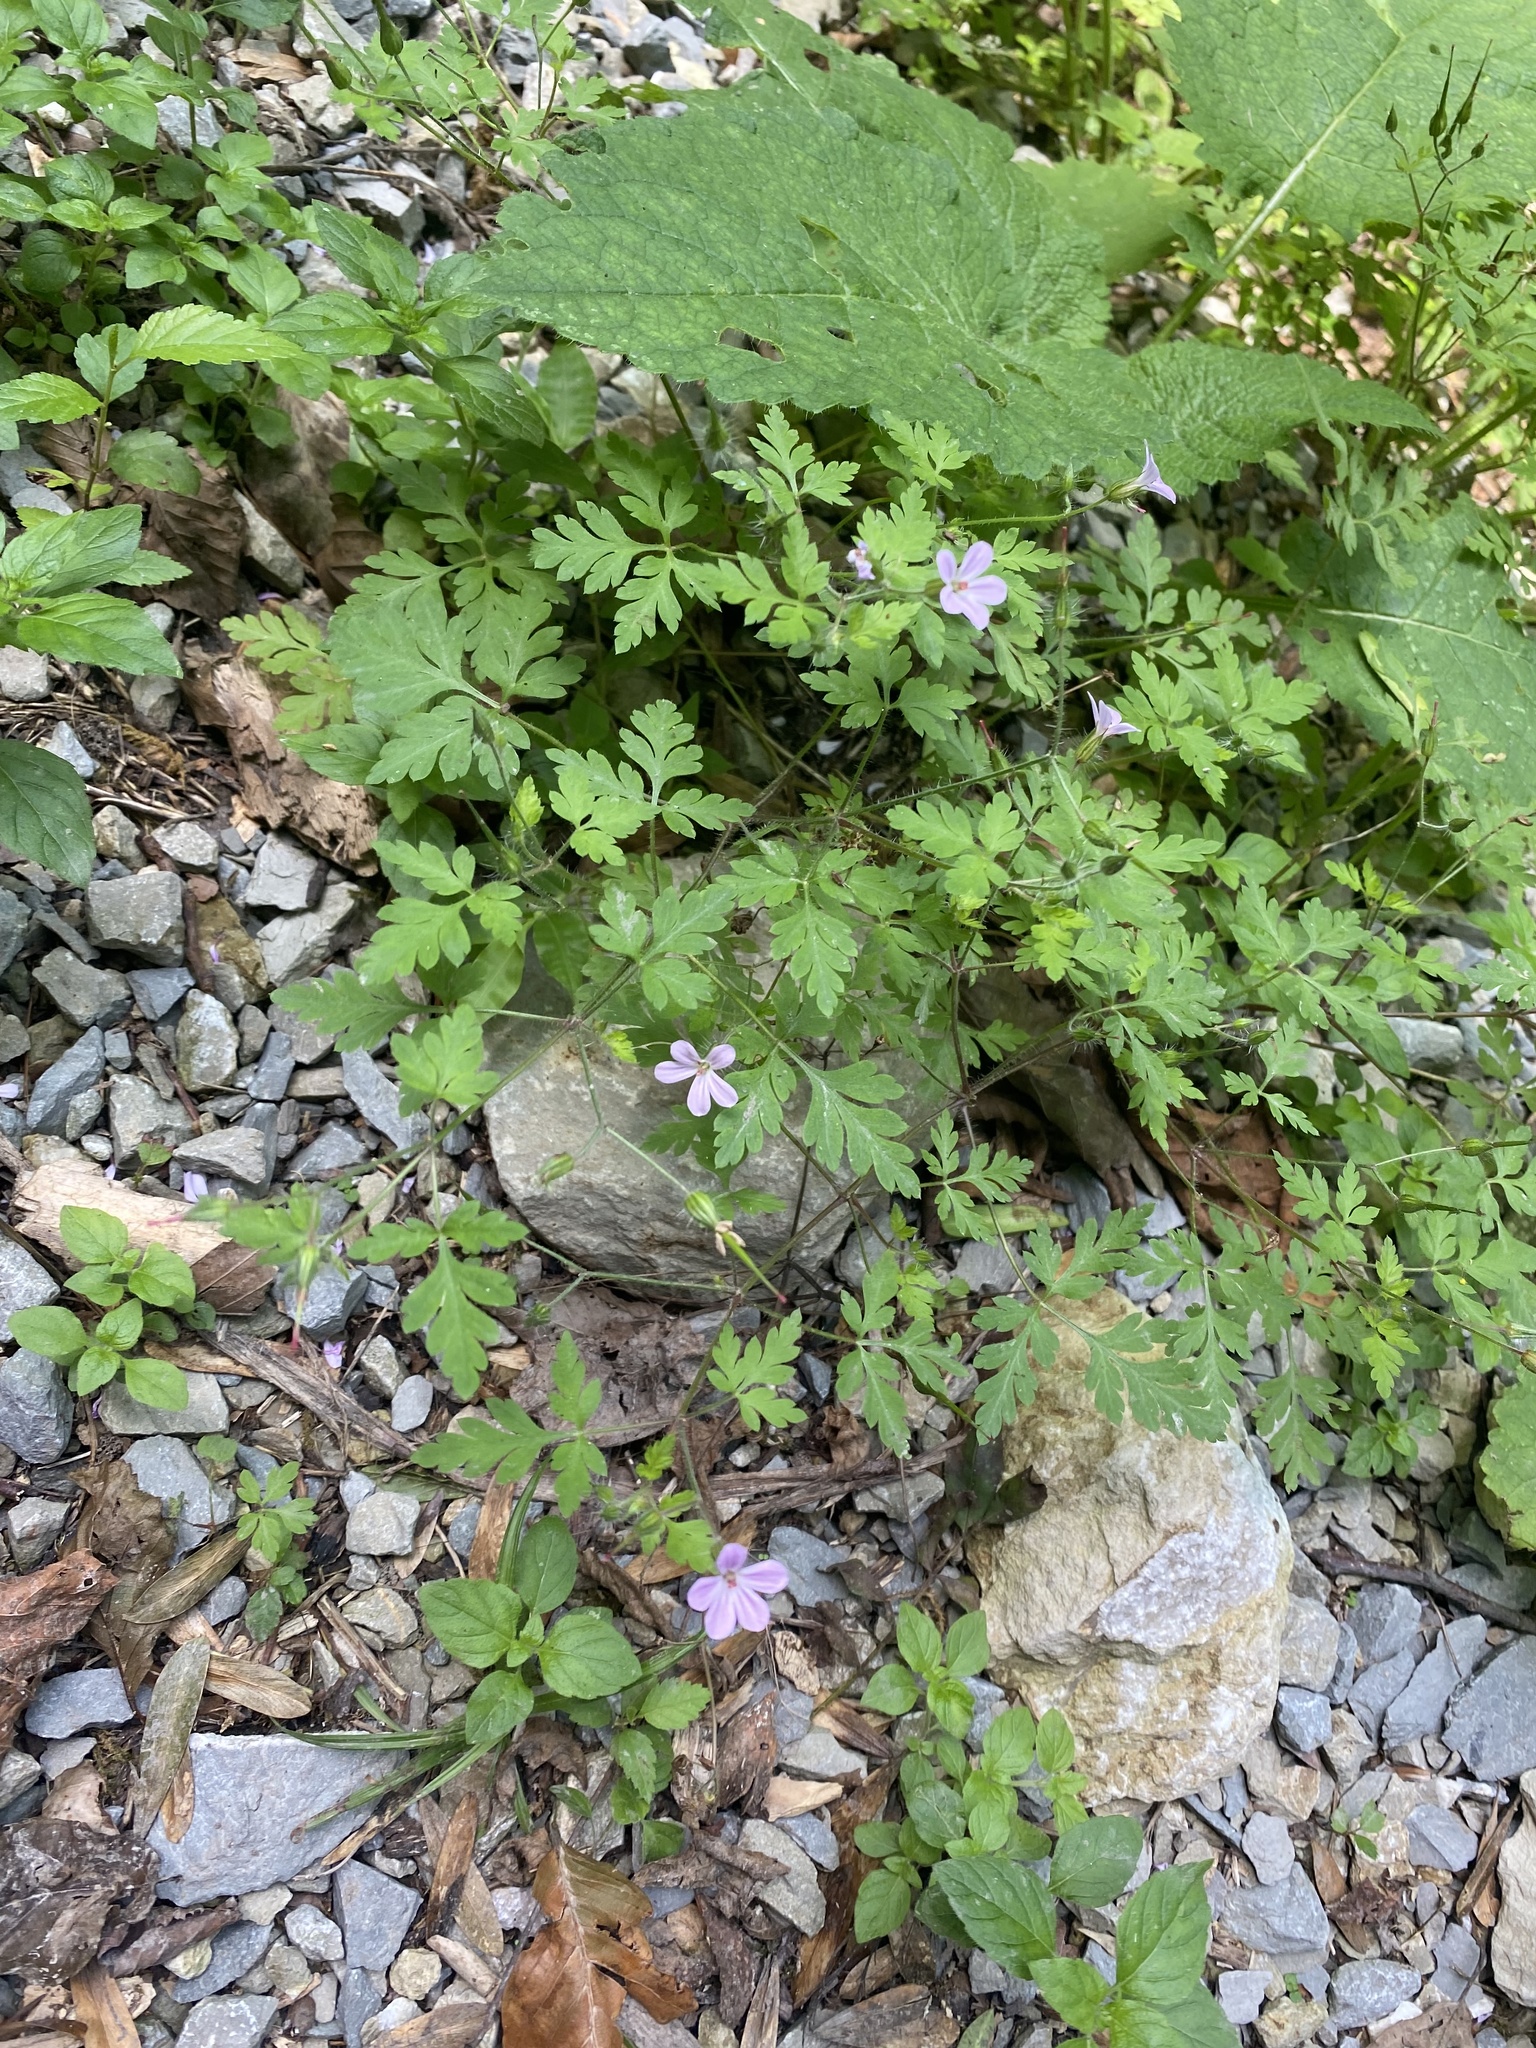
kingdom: Plantae
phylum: Tracheophyta
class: Magnoliopsida
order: Geraniales
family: Geraniaceae
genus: Geranium
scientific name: Geranium robertianum
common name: Herb-robert
